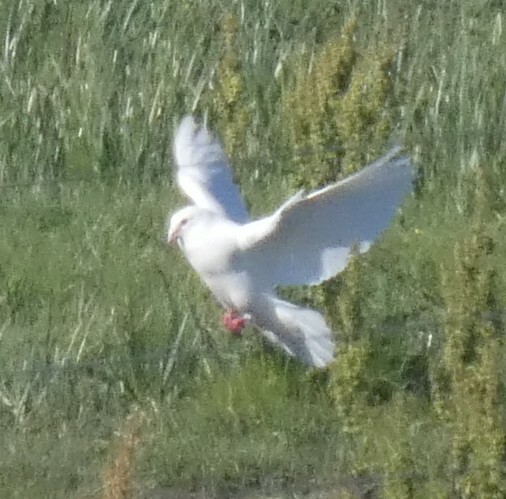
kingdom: Animalia
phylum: Chordata
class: Aves
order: Columbiformes
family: Columbidae
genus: Columba
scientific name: Columba livia
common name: Rock pigeon
